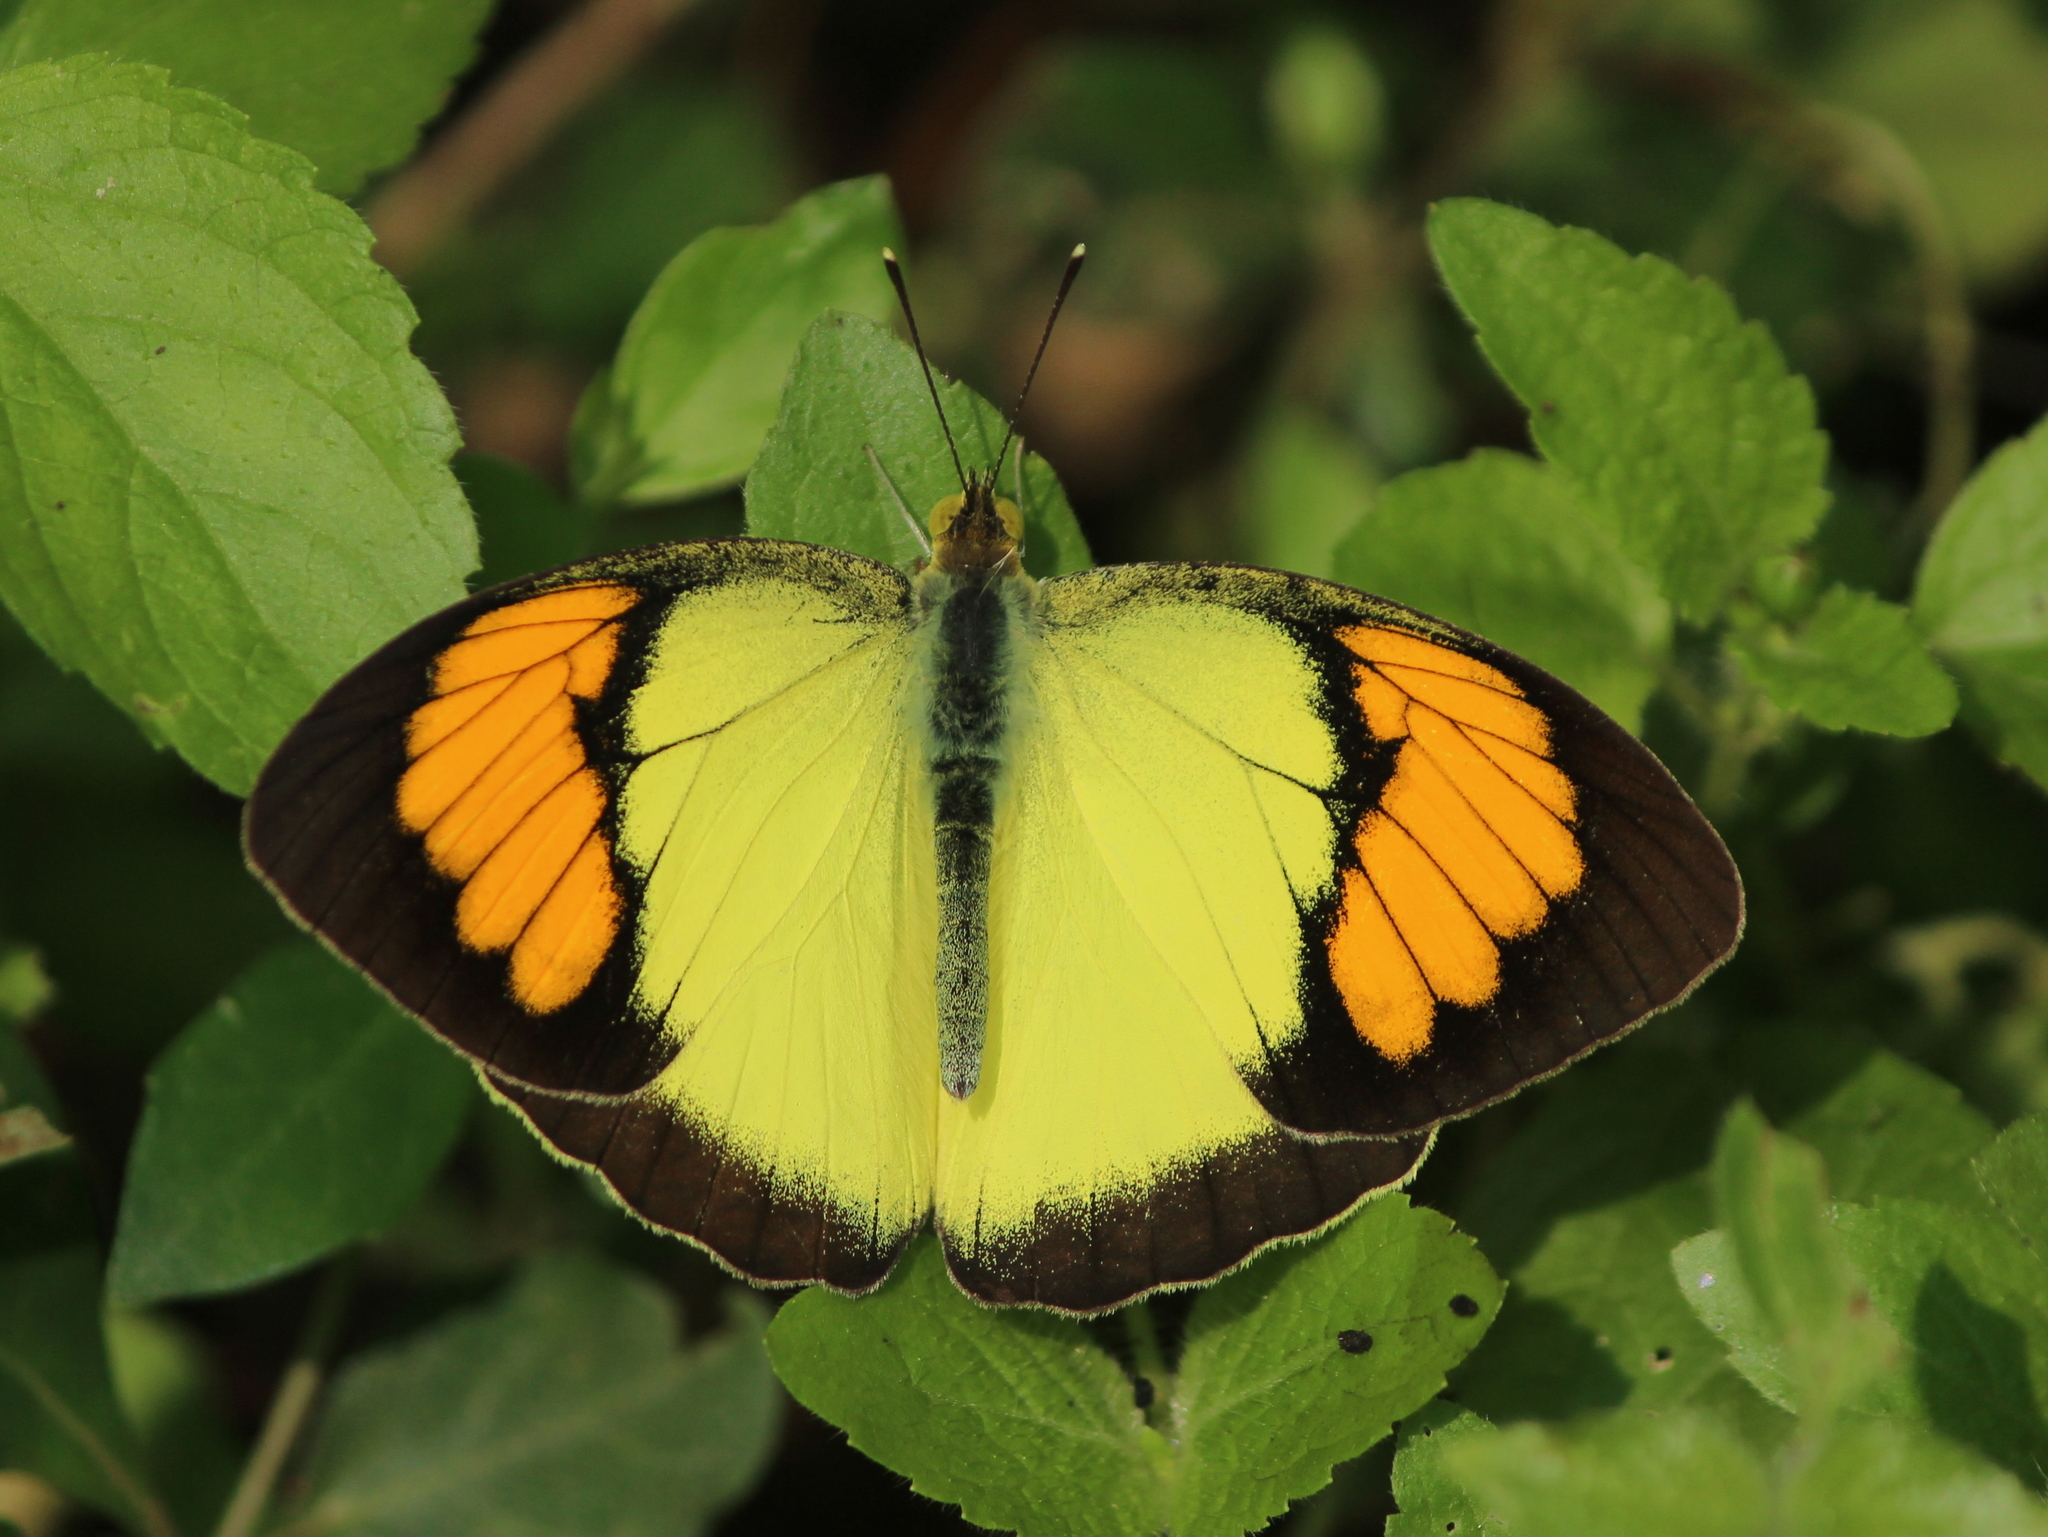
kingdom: Animalia
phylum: Arthropoda
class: Insecta
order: Lepidoptera
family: Pieridae
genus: Ixias
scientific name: Ixias pyrene
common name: Yellow orange tip
